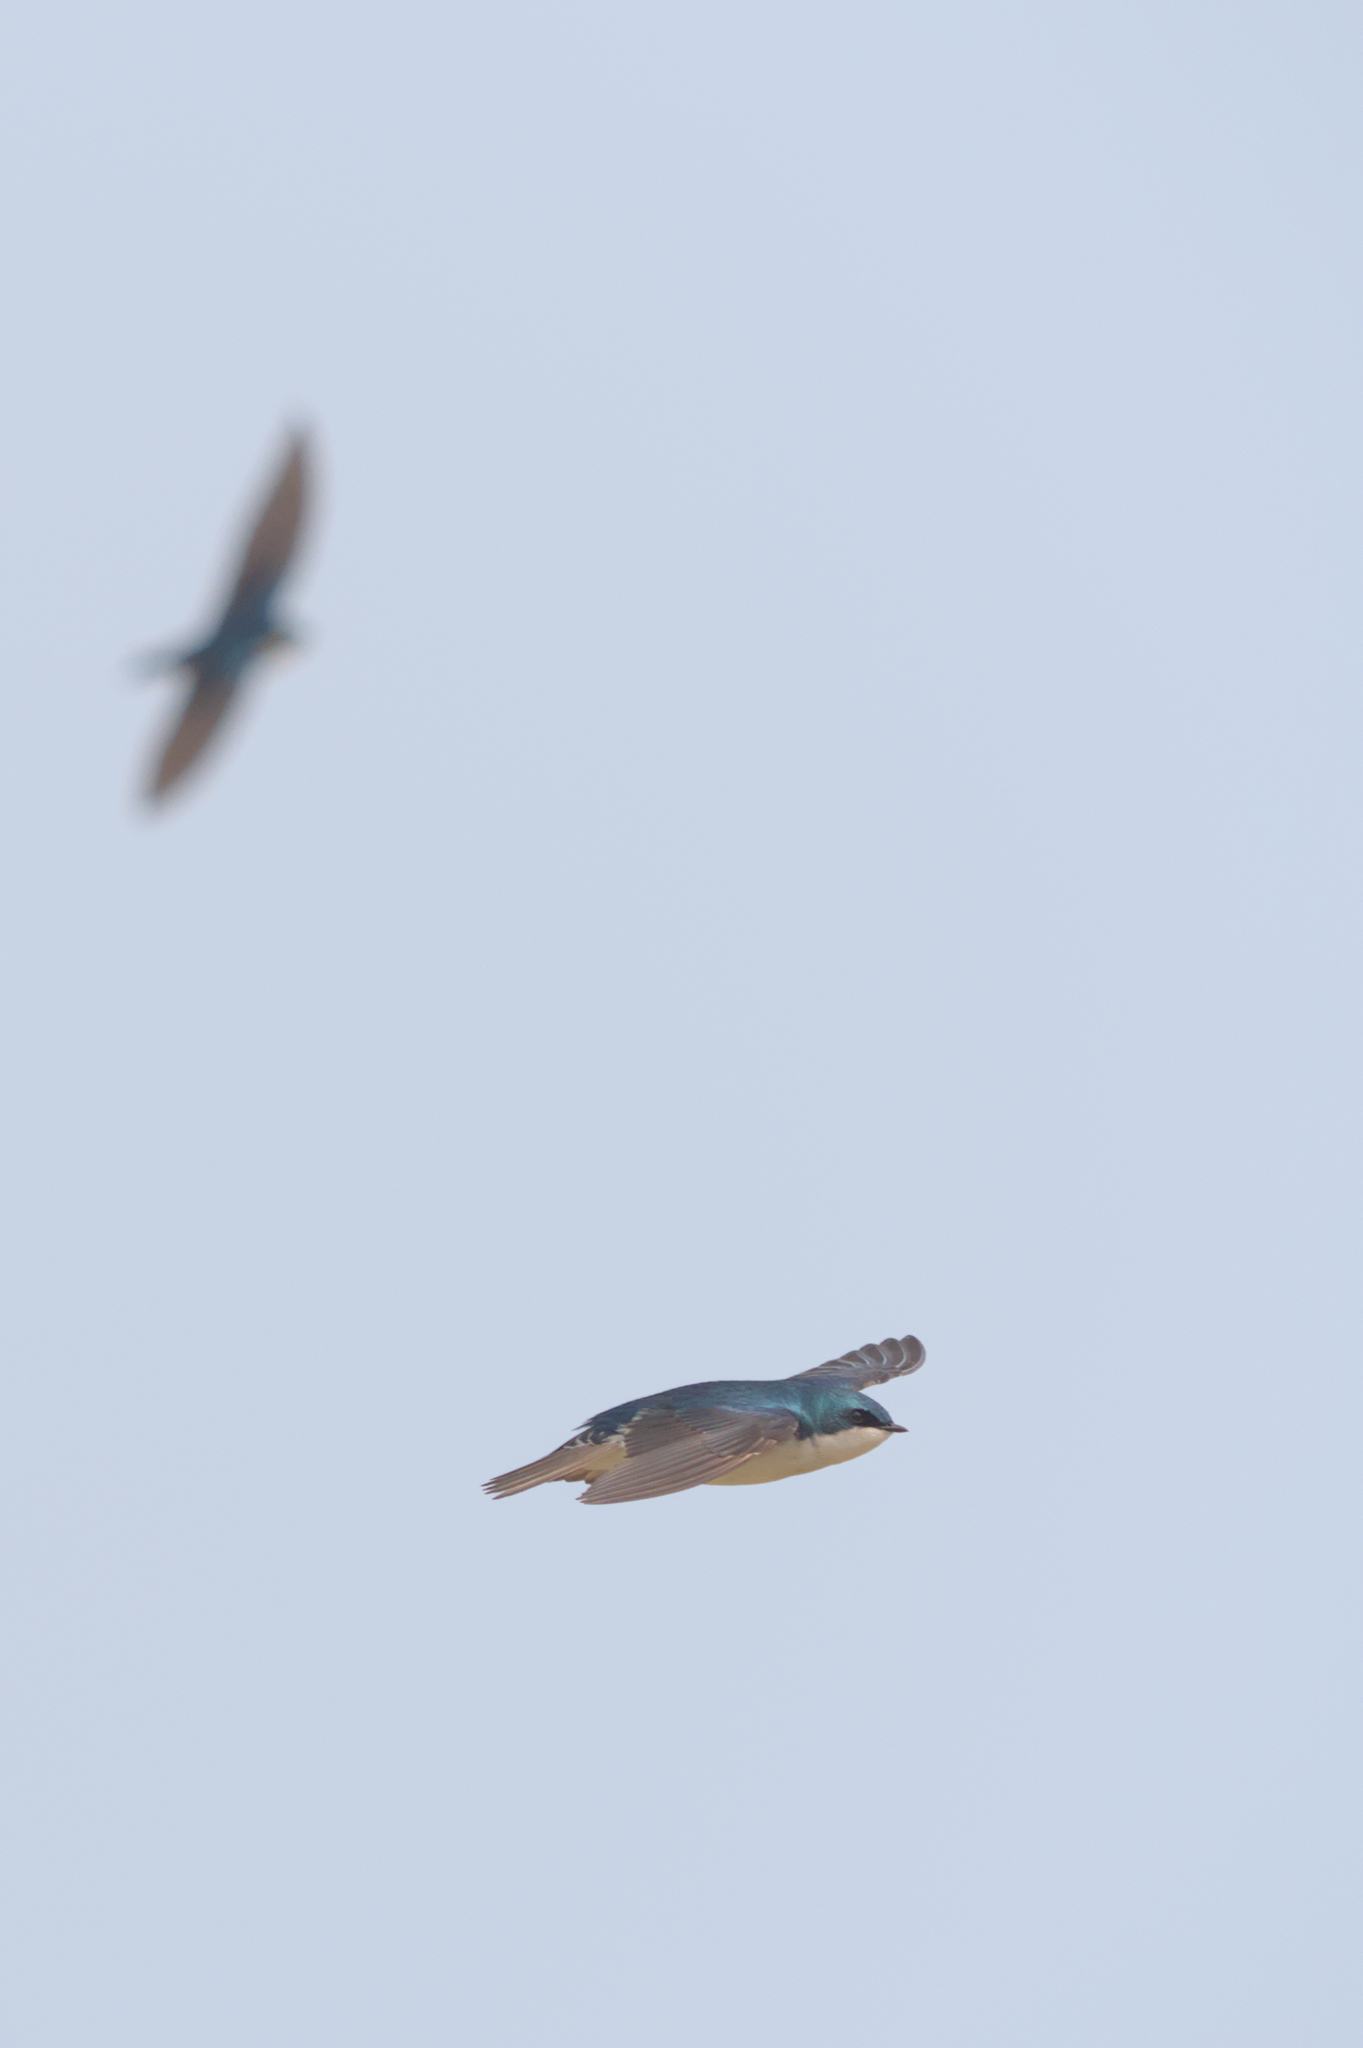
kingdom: Animalia
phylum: Chordata
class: Aves
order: Passeriformes
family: Hirundinidae
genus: Tachycineta
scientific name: Tachycineta bicolor
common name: Tree swallow
